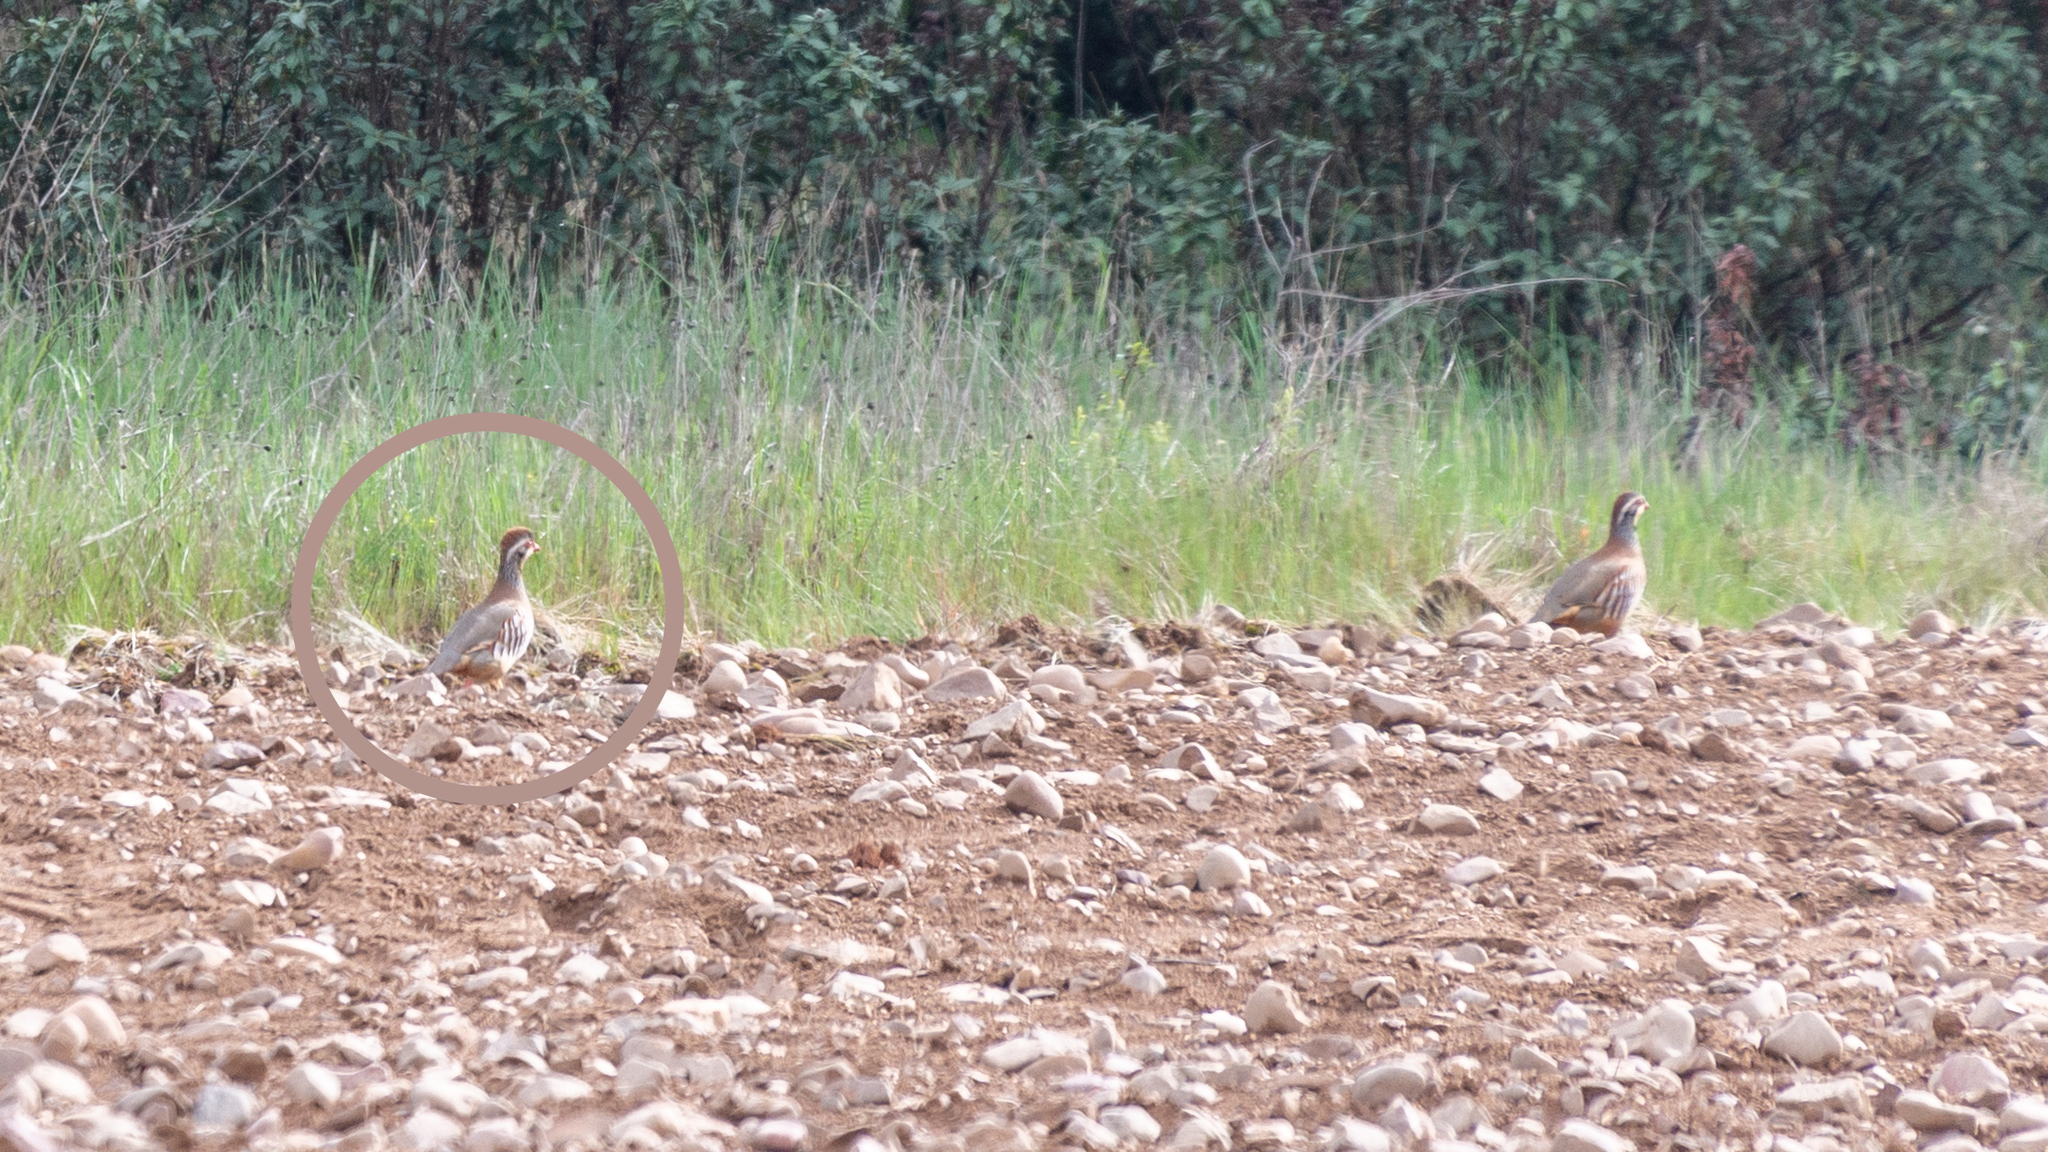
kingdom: Animalia
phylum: Chordata
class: Aves
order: Galliformes
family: Phasianidae
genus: Alectoris
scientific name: Alectoris rufa
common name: Red-legged partridge
